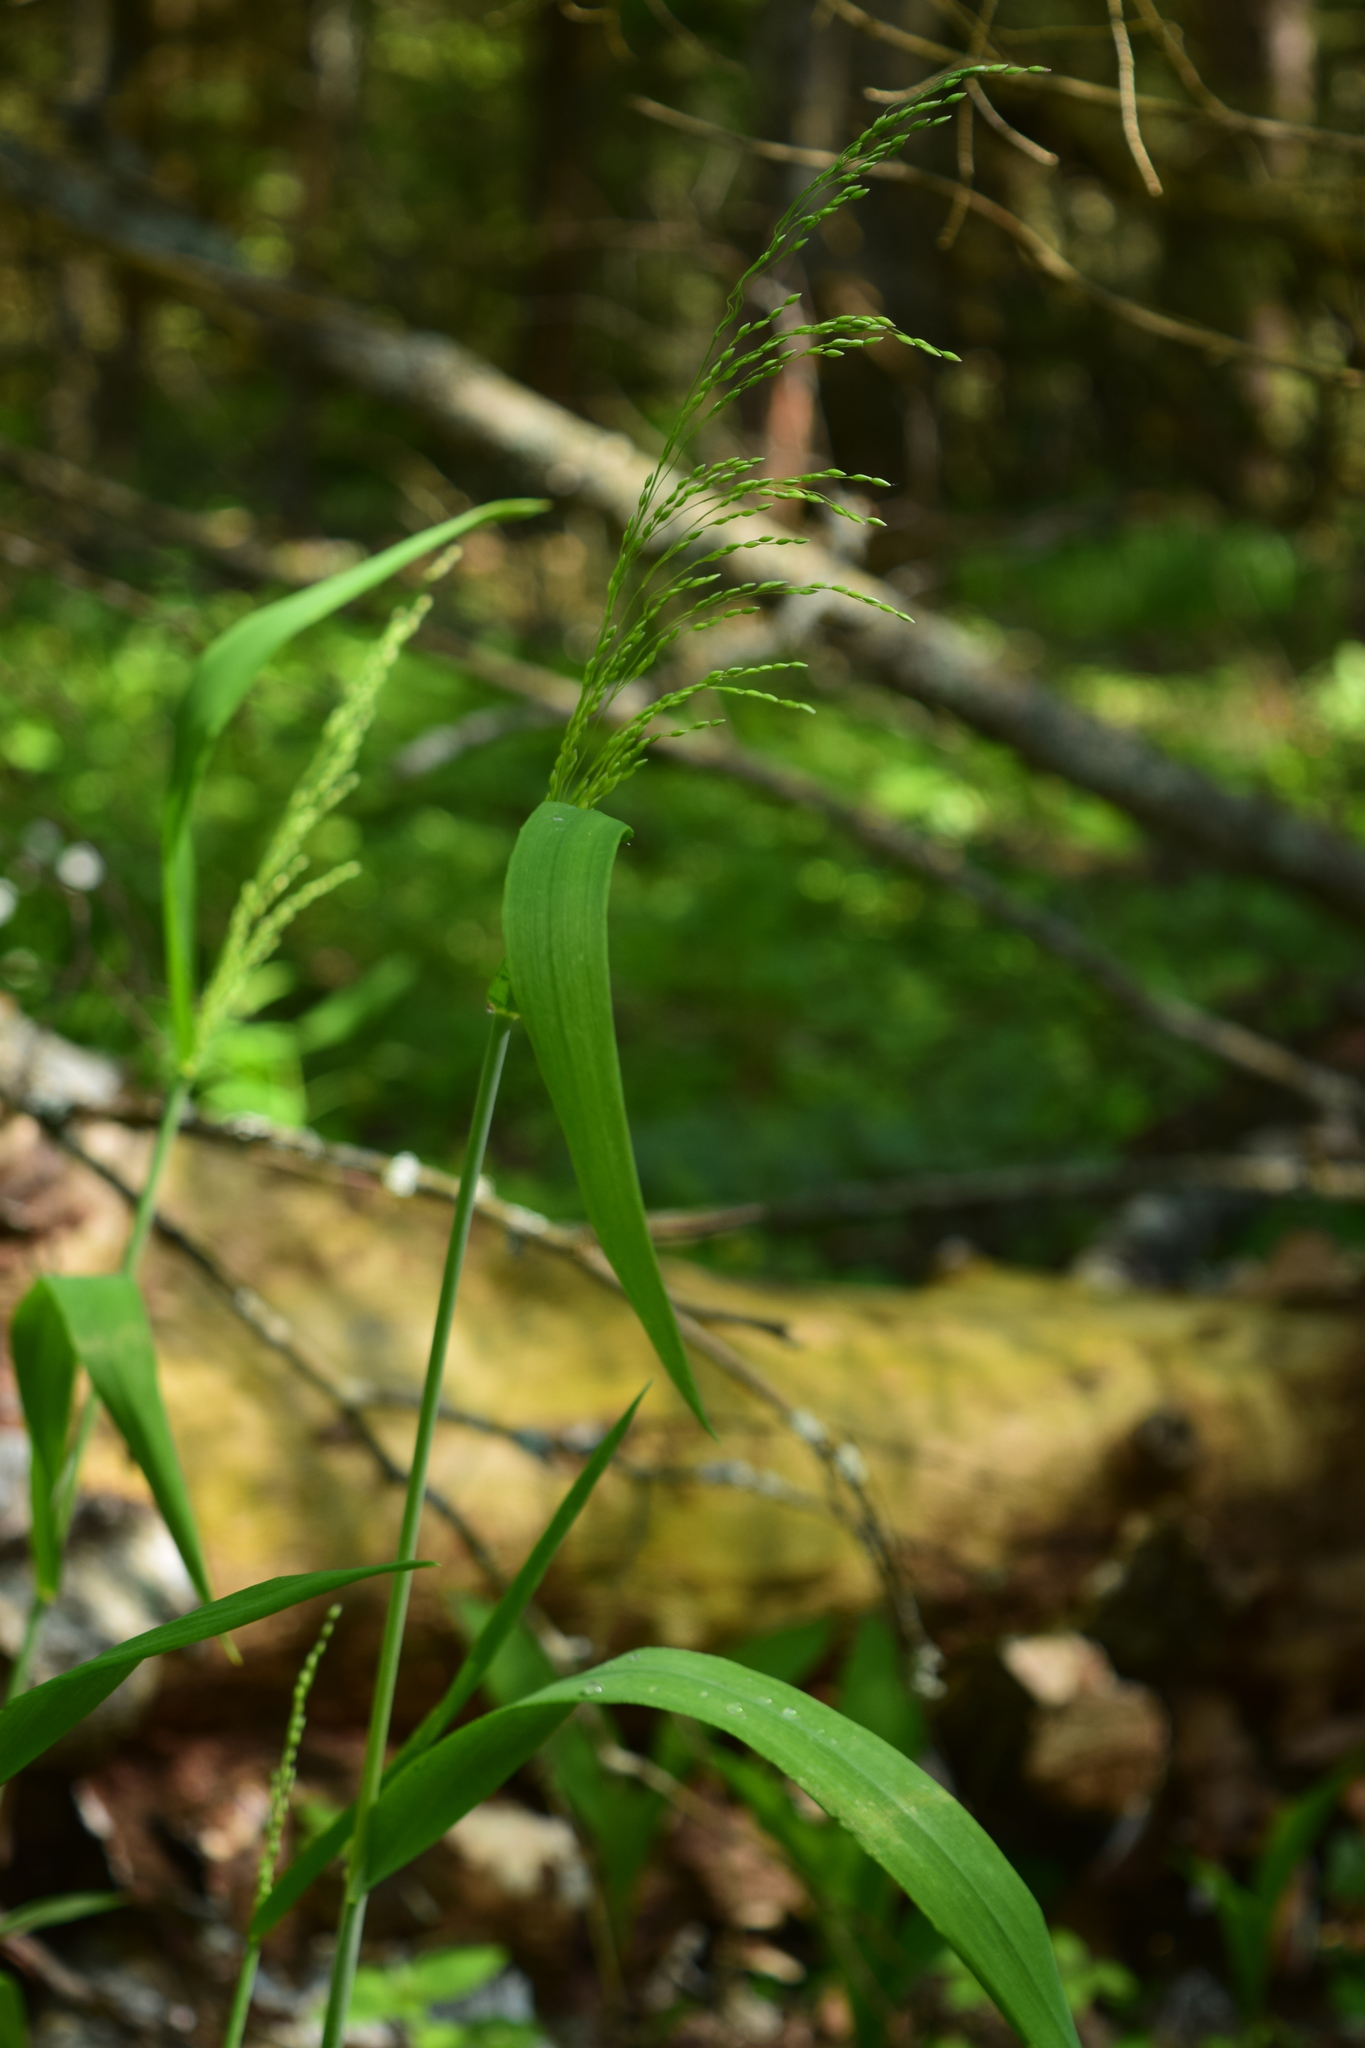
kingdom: Plantae
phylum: Tracheophyta
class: Liliopsida
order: Poales
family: Poaceae
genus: Milium
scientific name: Milium effusum
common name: Wood millet
